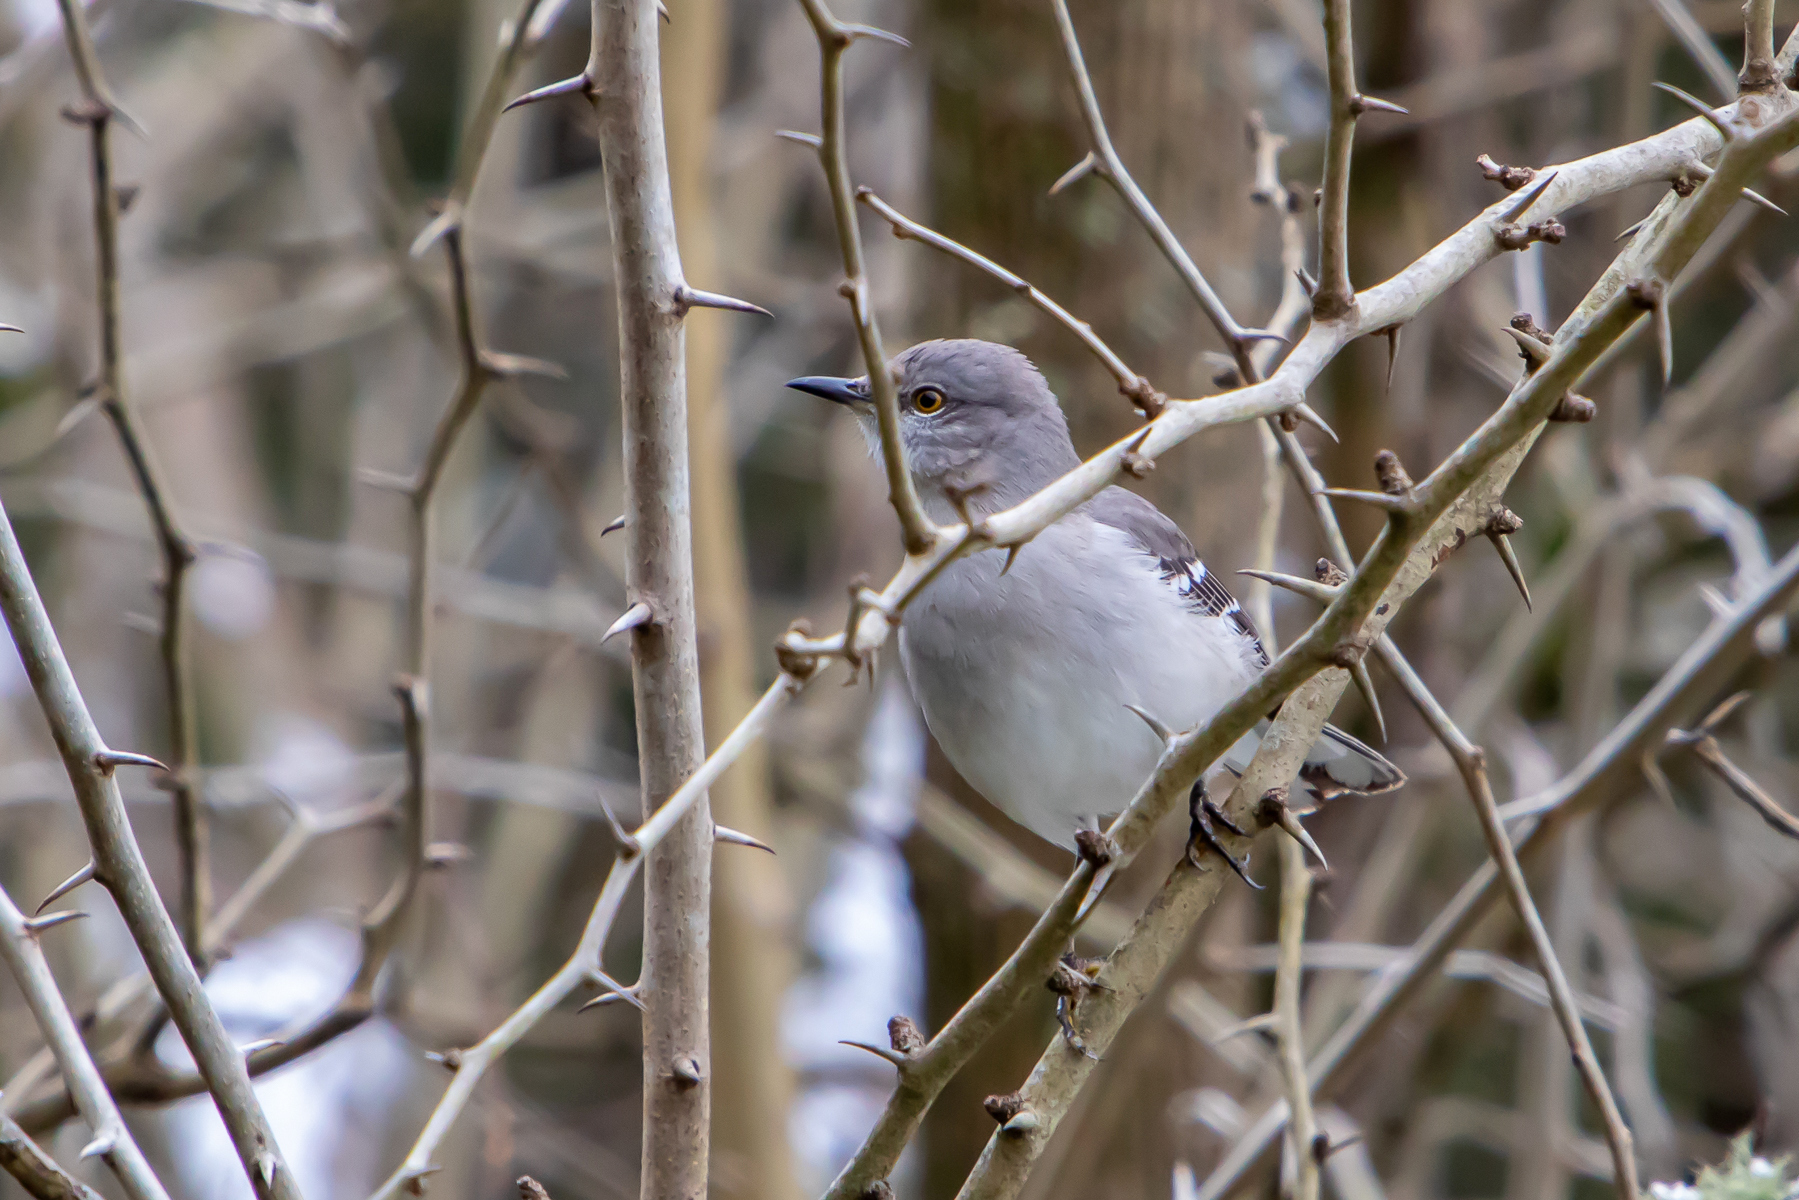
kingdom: Animalia
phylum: Chordata
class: Aves
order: Passeriformes
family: Mimidae
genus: Mimus
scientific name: Mimus polyglottos
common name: Northern mockingbird
